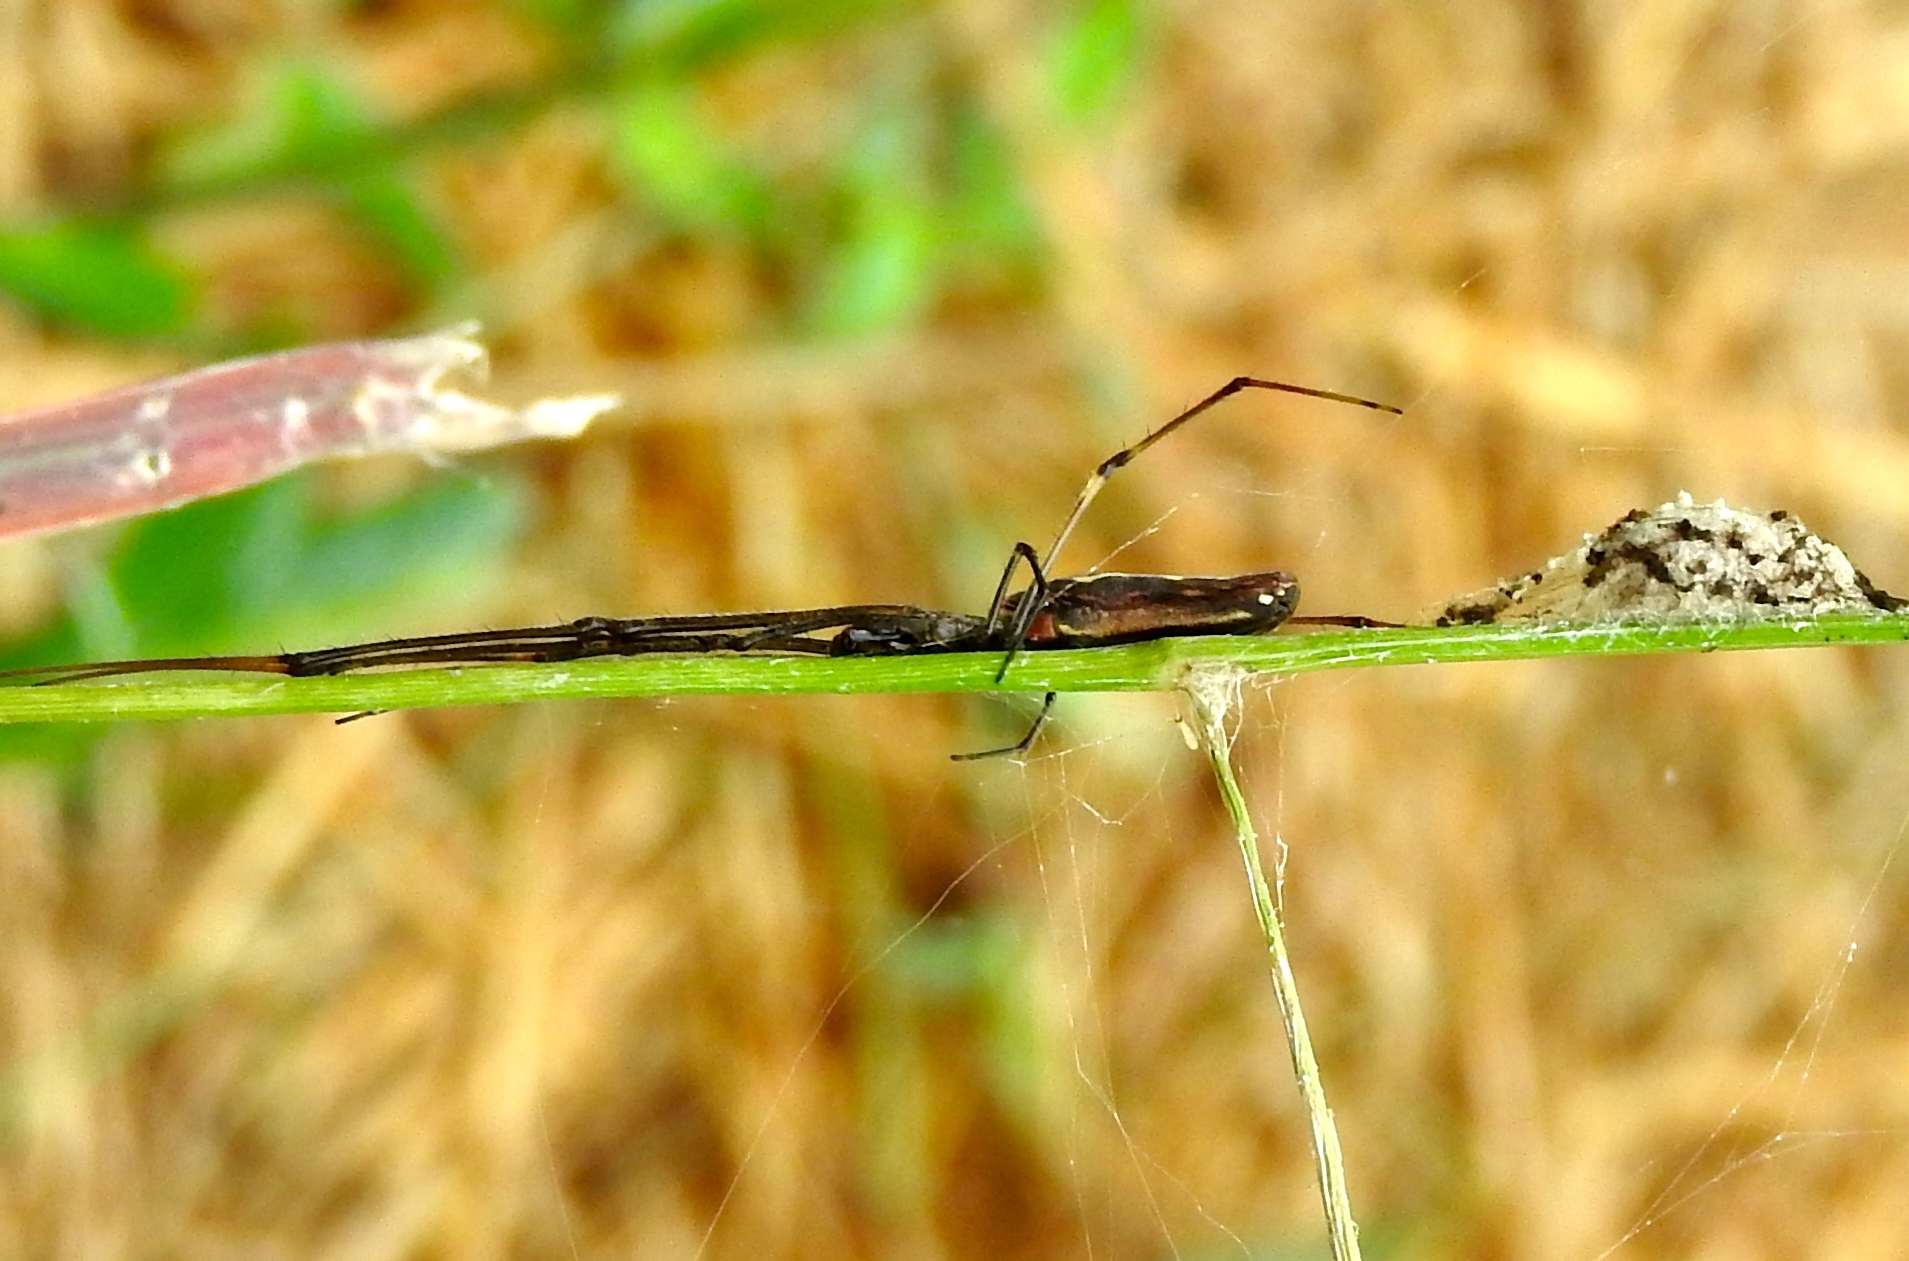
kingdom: Animalia
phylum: Arthropoda
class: Arachnida
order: Araneae
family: Tetragnathidae
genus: Tetragnatha
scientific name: Tetragnatha
